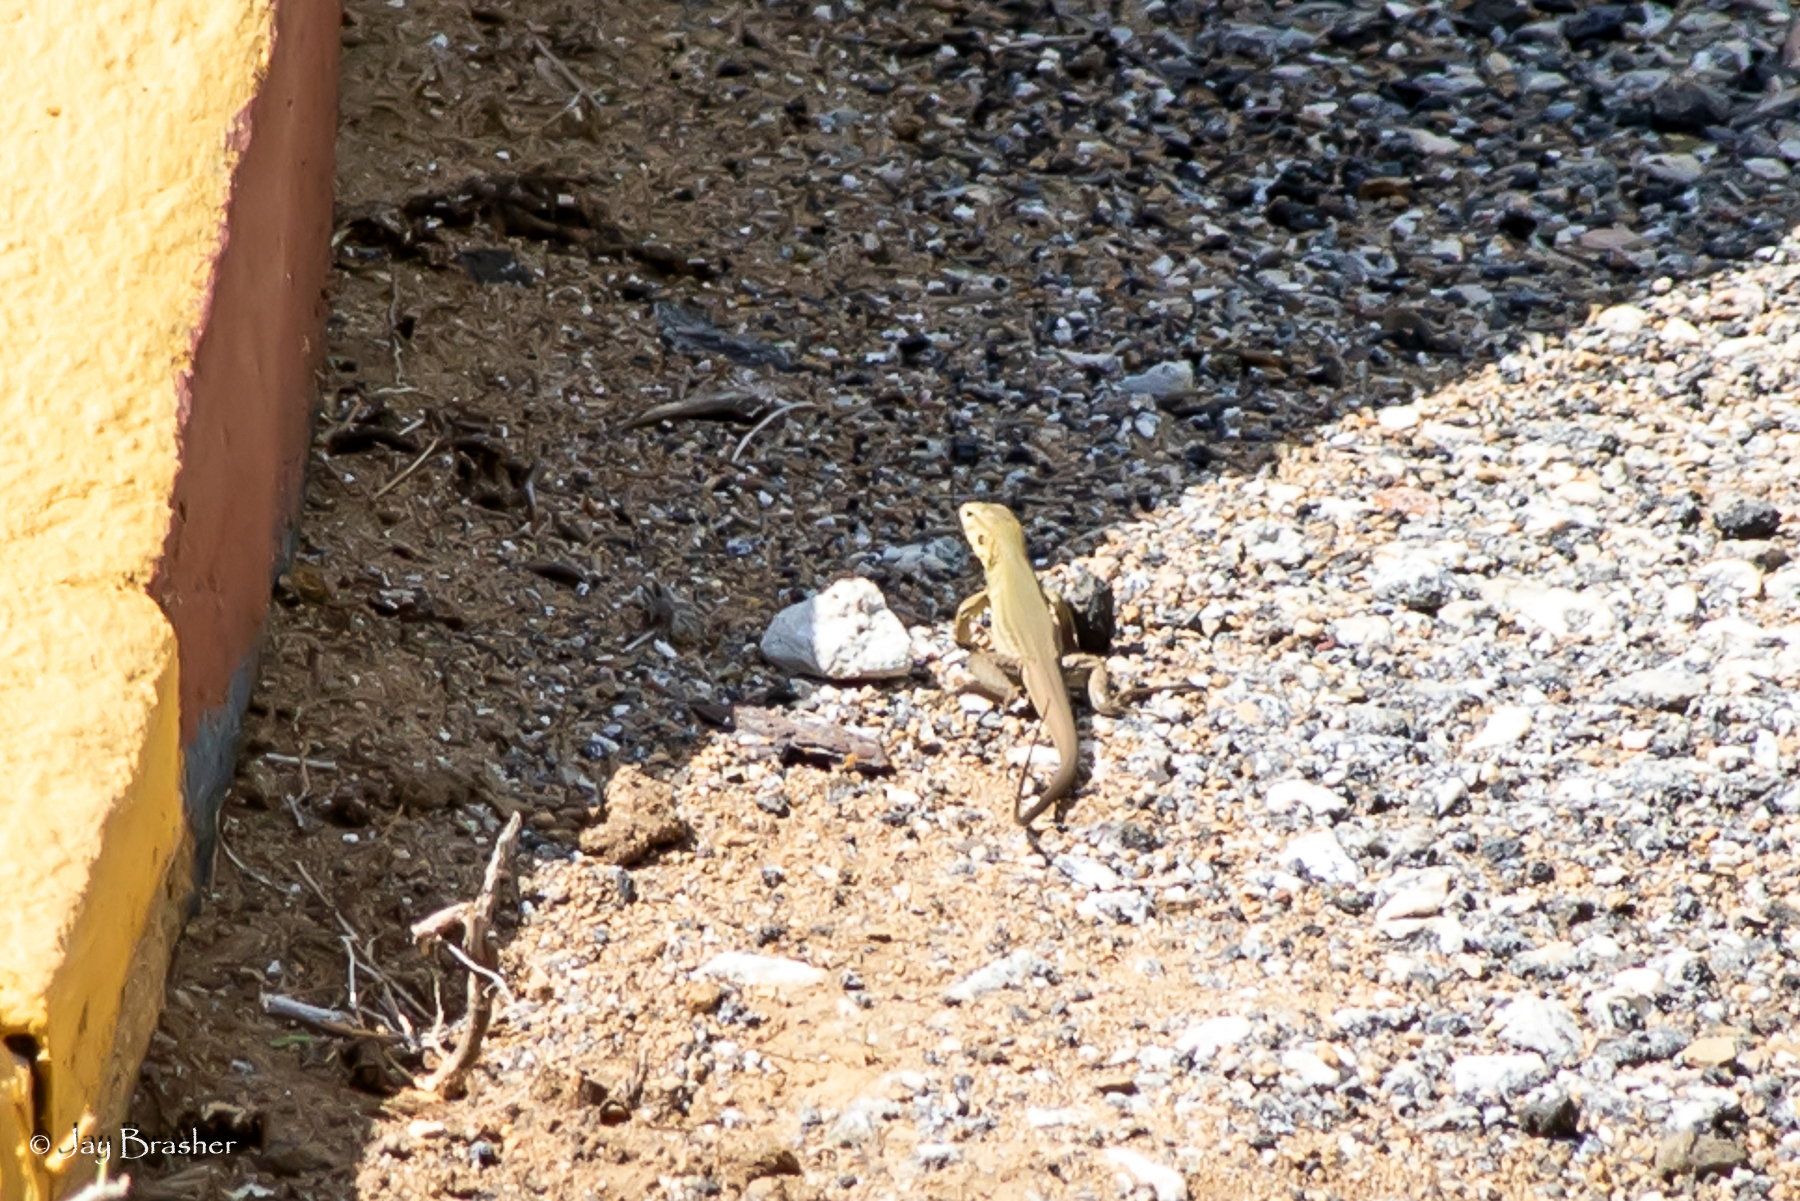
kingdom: Animalia
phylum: Chordata
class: Squamata
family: Teiidae
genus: Cnemidophorus
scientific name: Cnemidophorus ruthveni
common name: Bonaire whiptail
